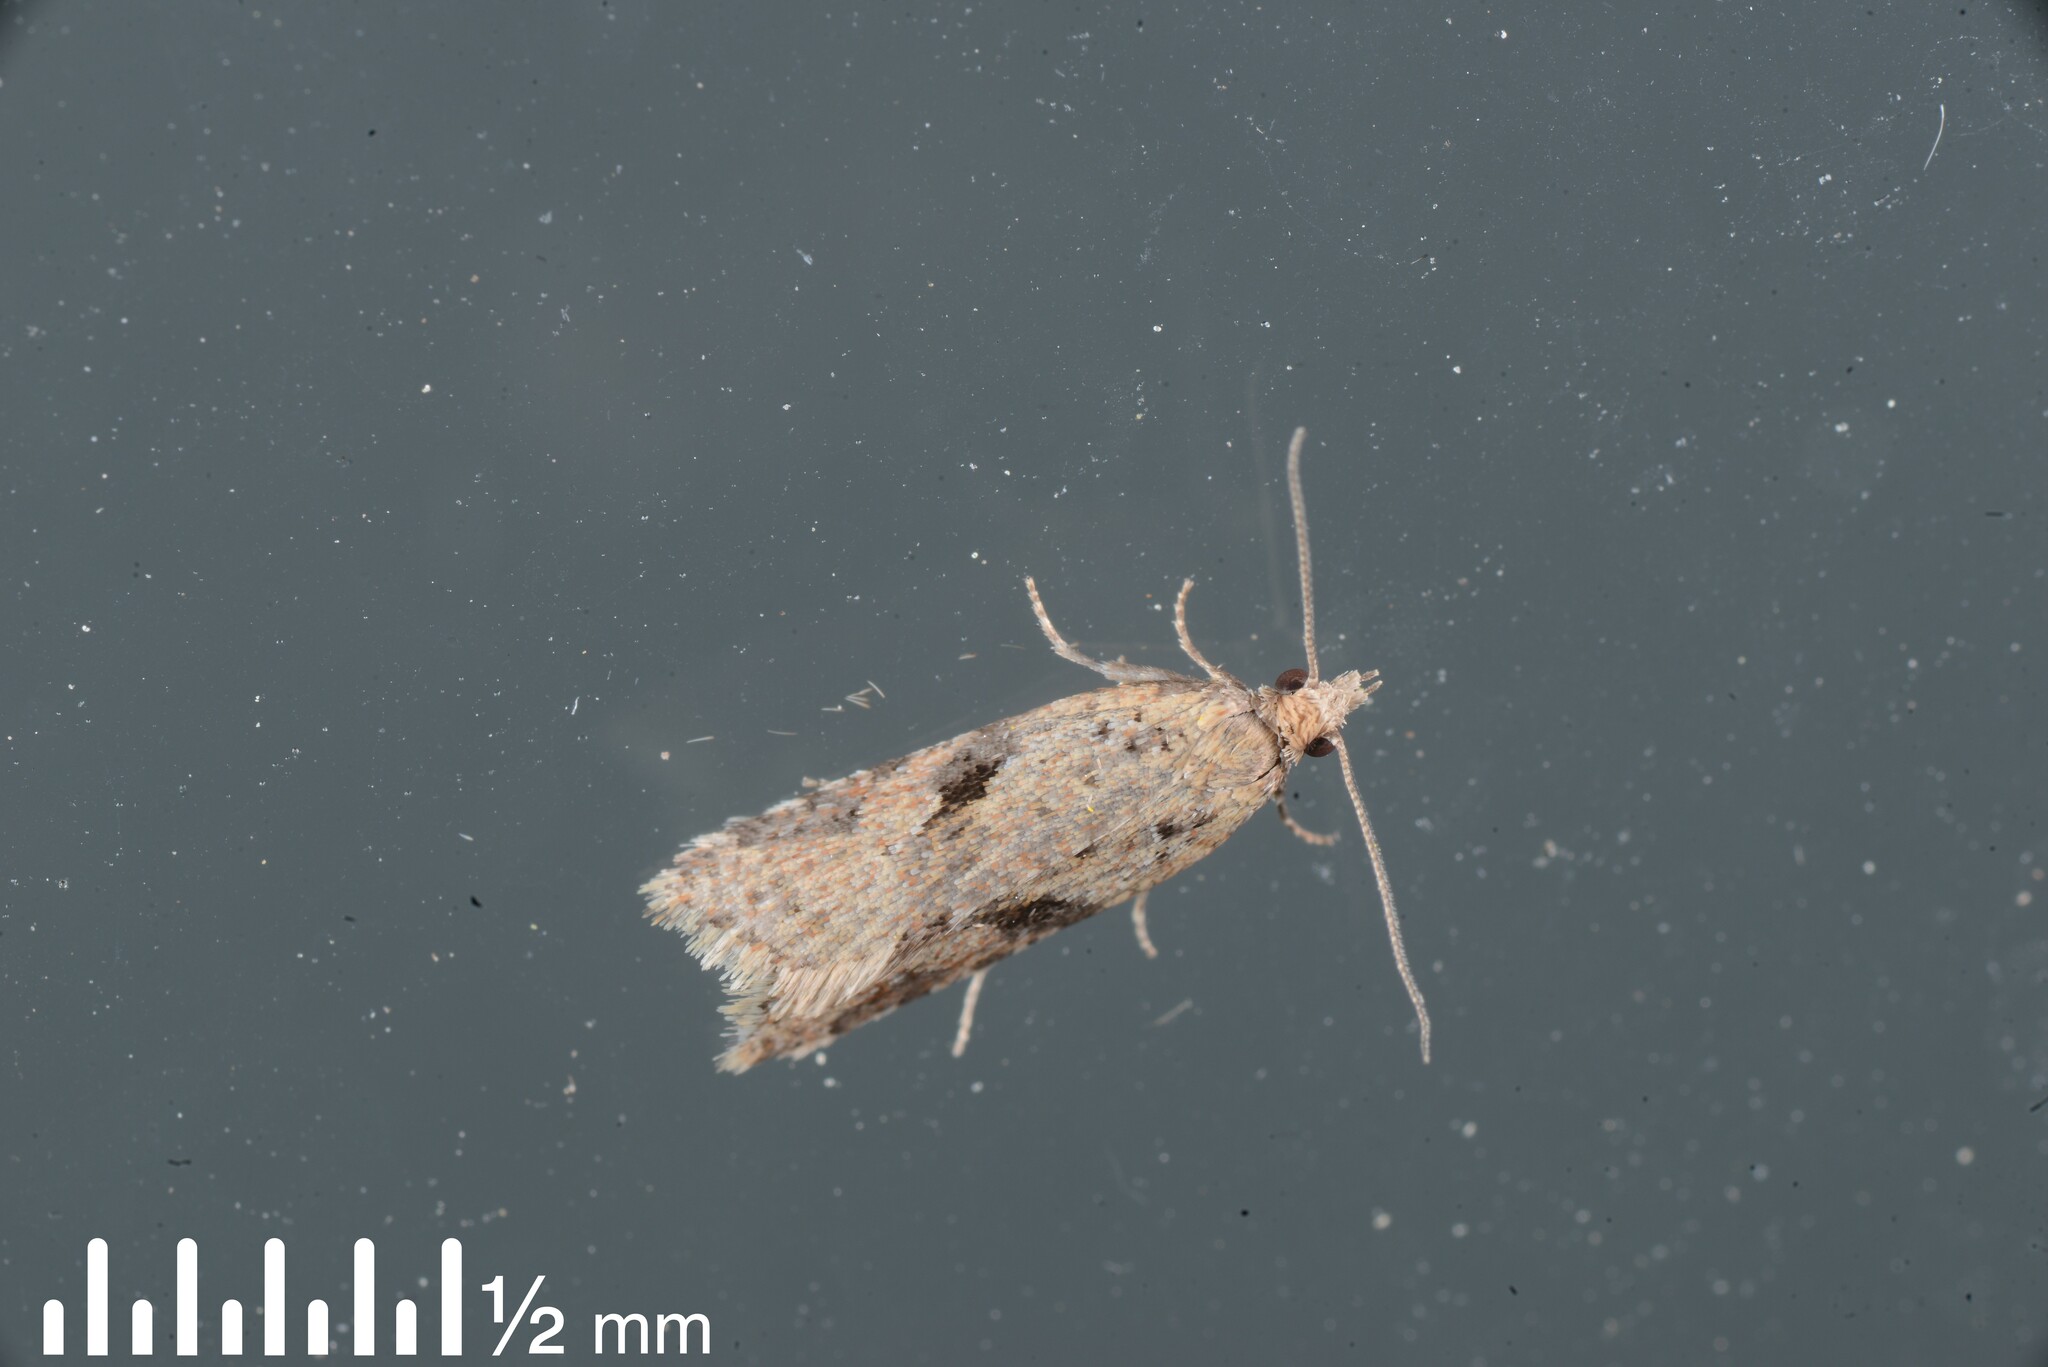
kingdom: Animalia
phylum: Arthropoda
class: Insecta
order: Lepidoptera
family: Tortricidae
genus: Capua
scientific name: Capua semiferana
